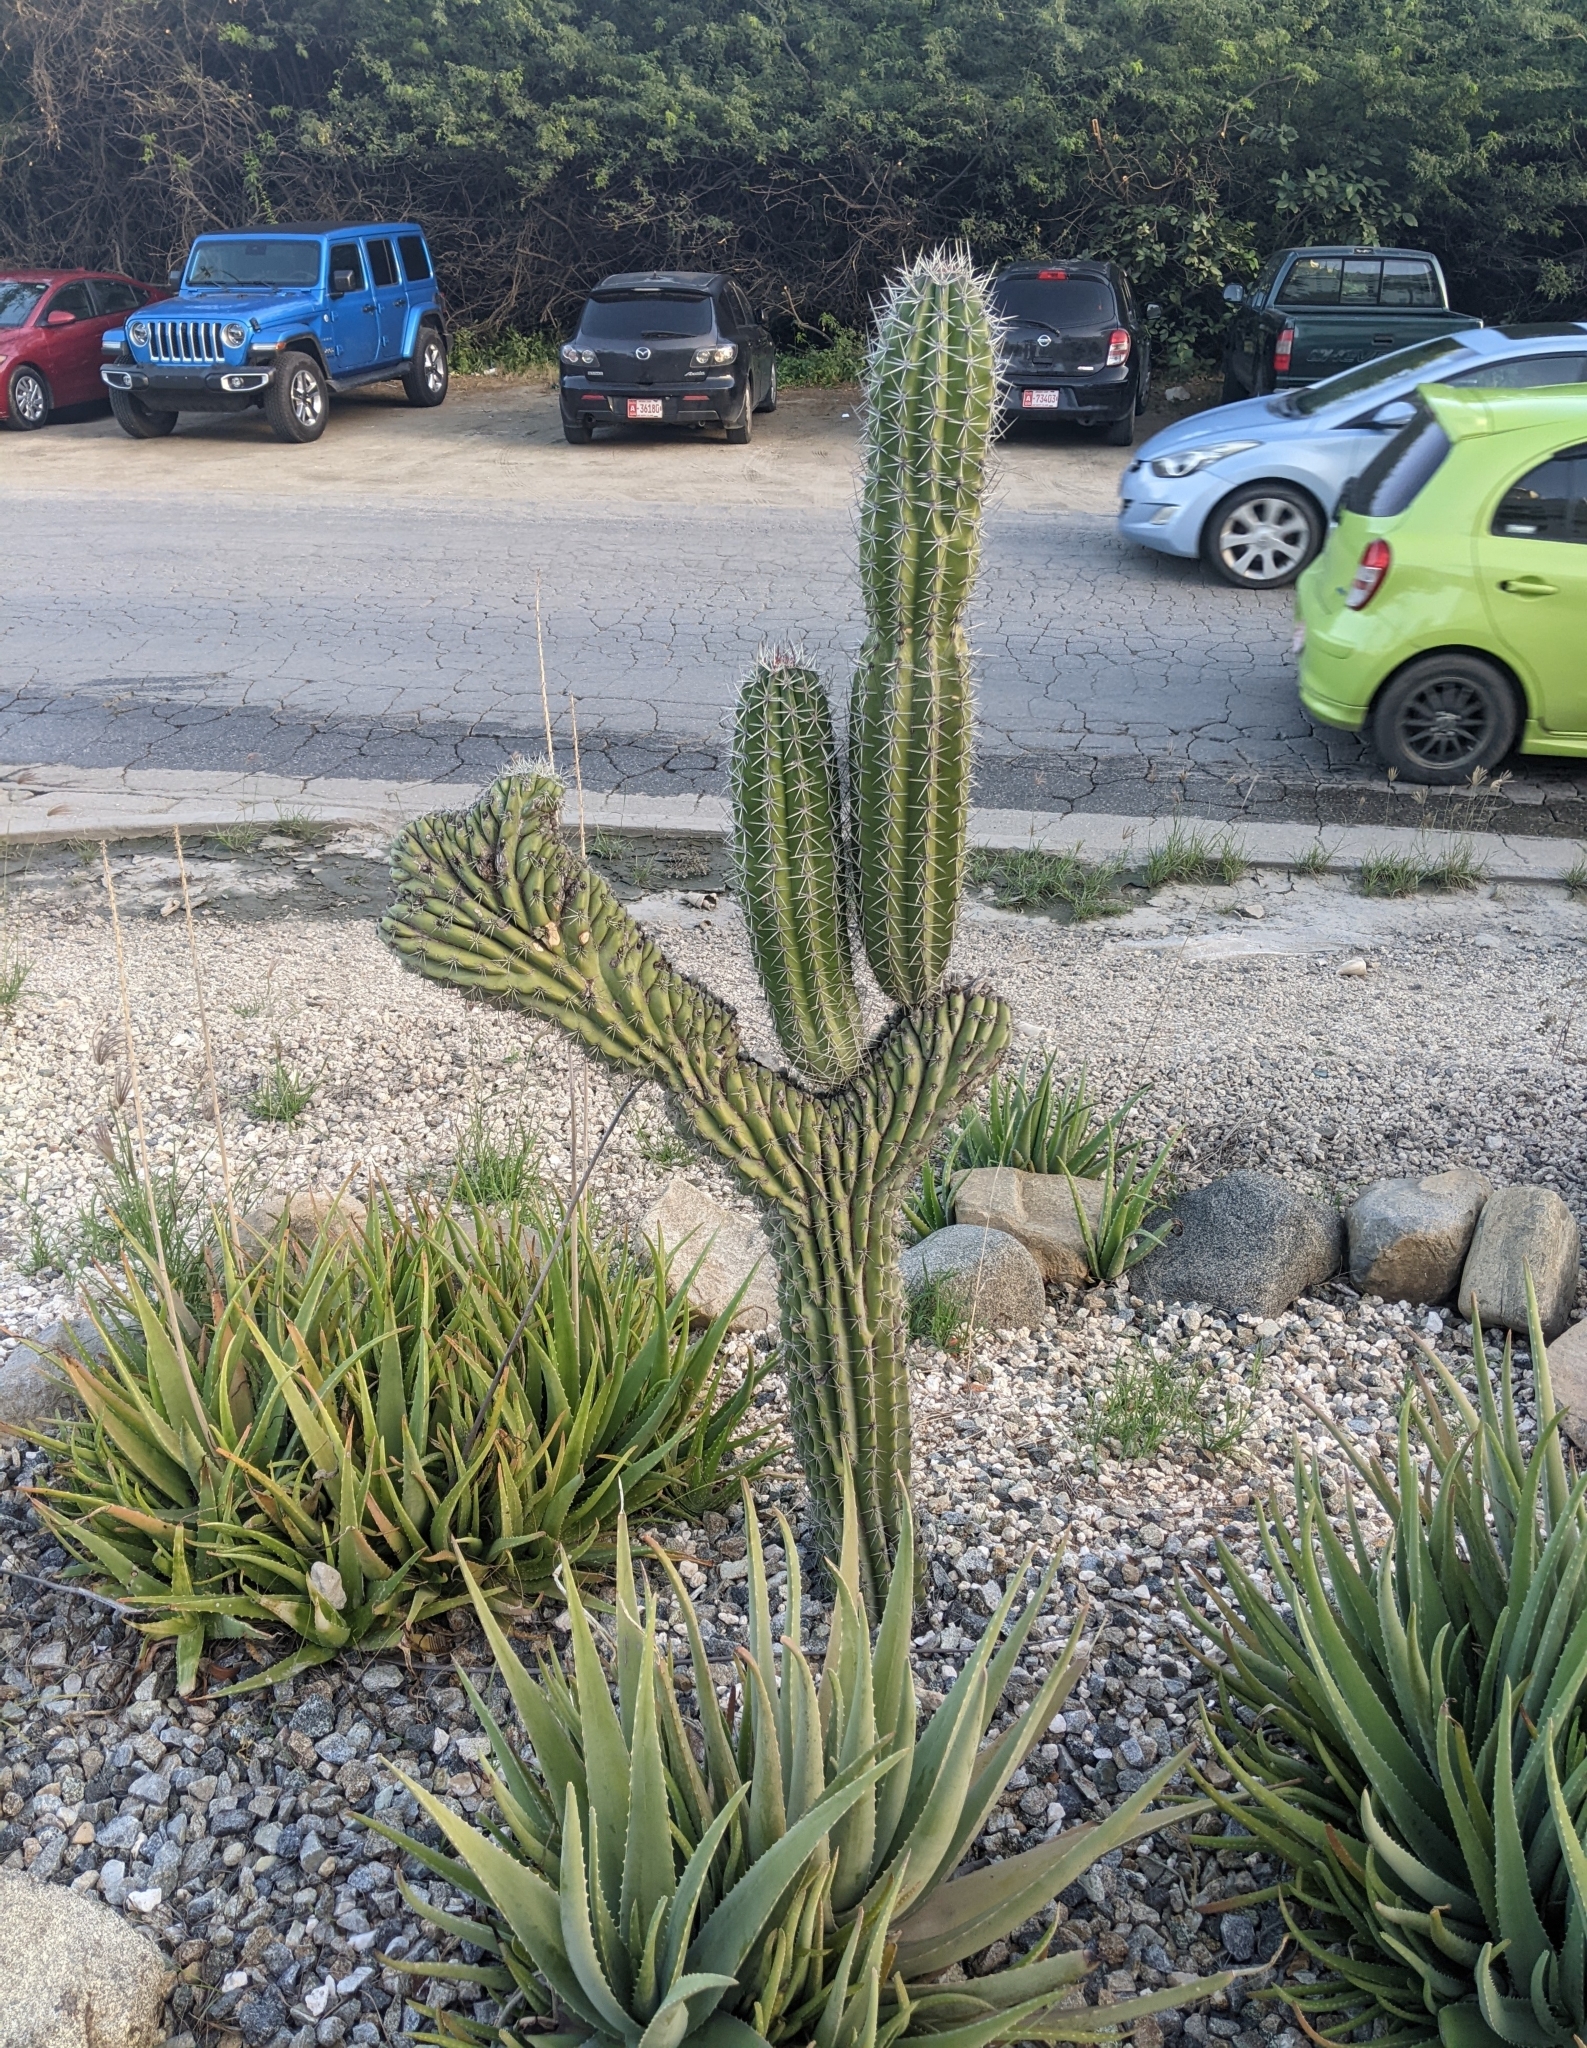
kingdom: Plantae
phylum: Tracheophyta
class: Magnoliopsida
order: Caryophyllales
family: Cactaceae
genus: Stenocereus
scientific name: Stenocereus griseus
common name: Tall candelabra cactus
